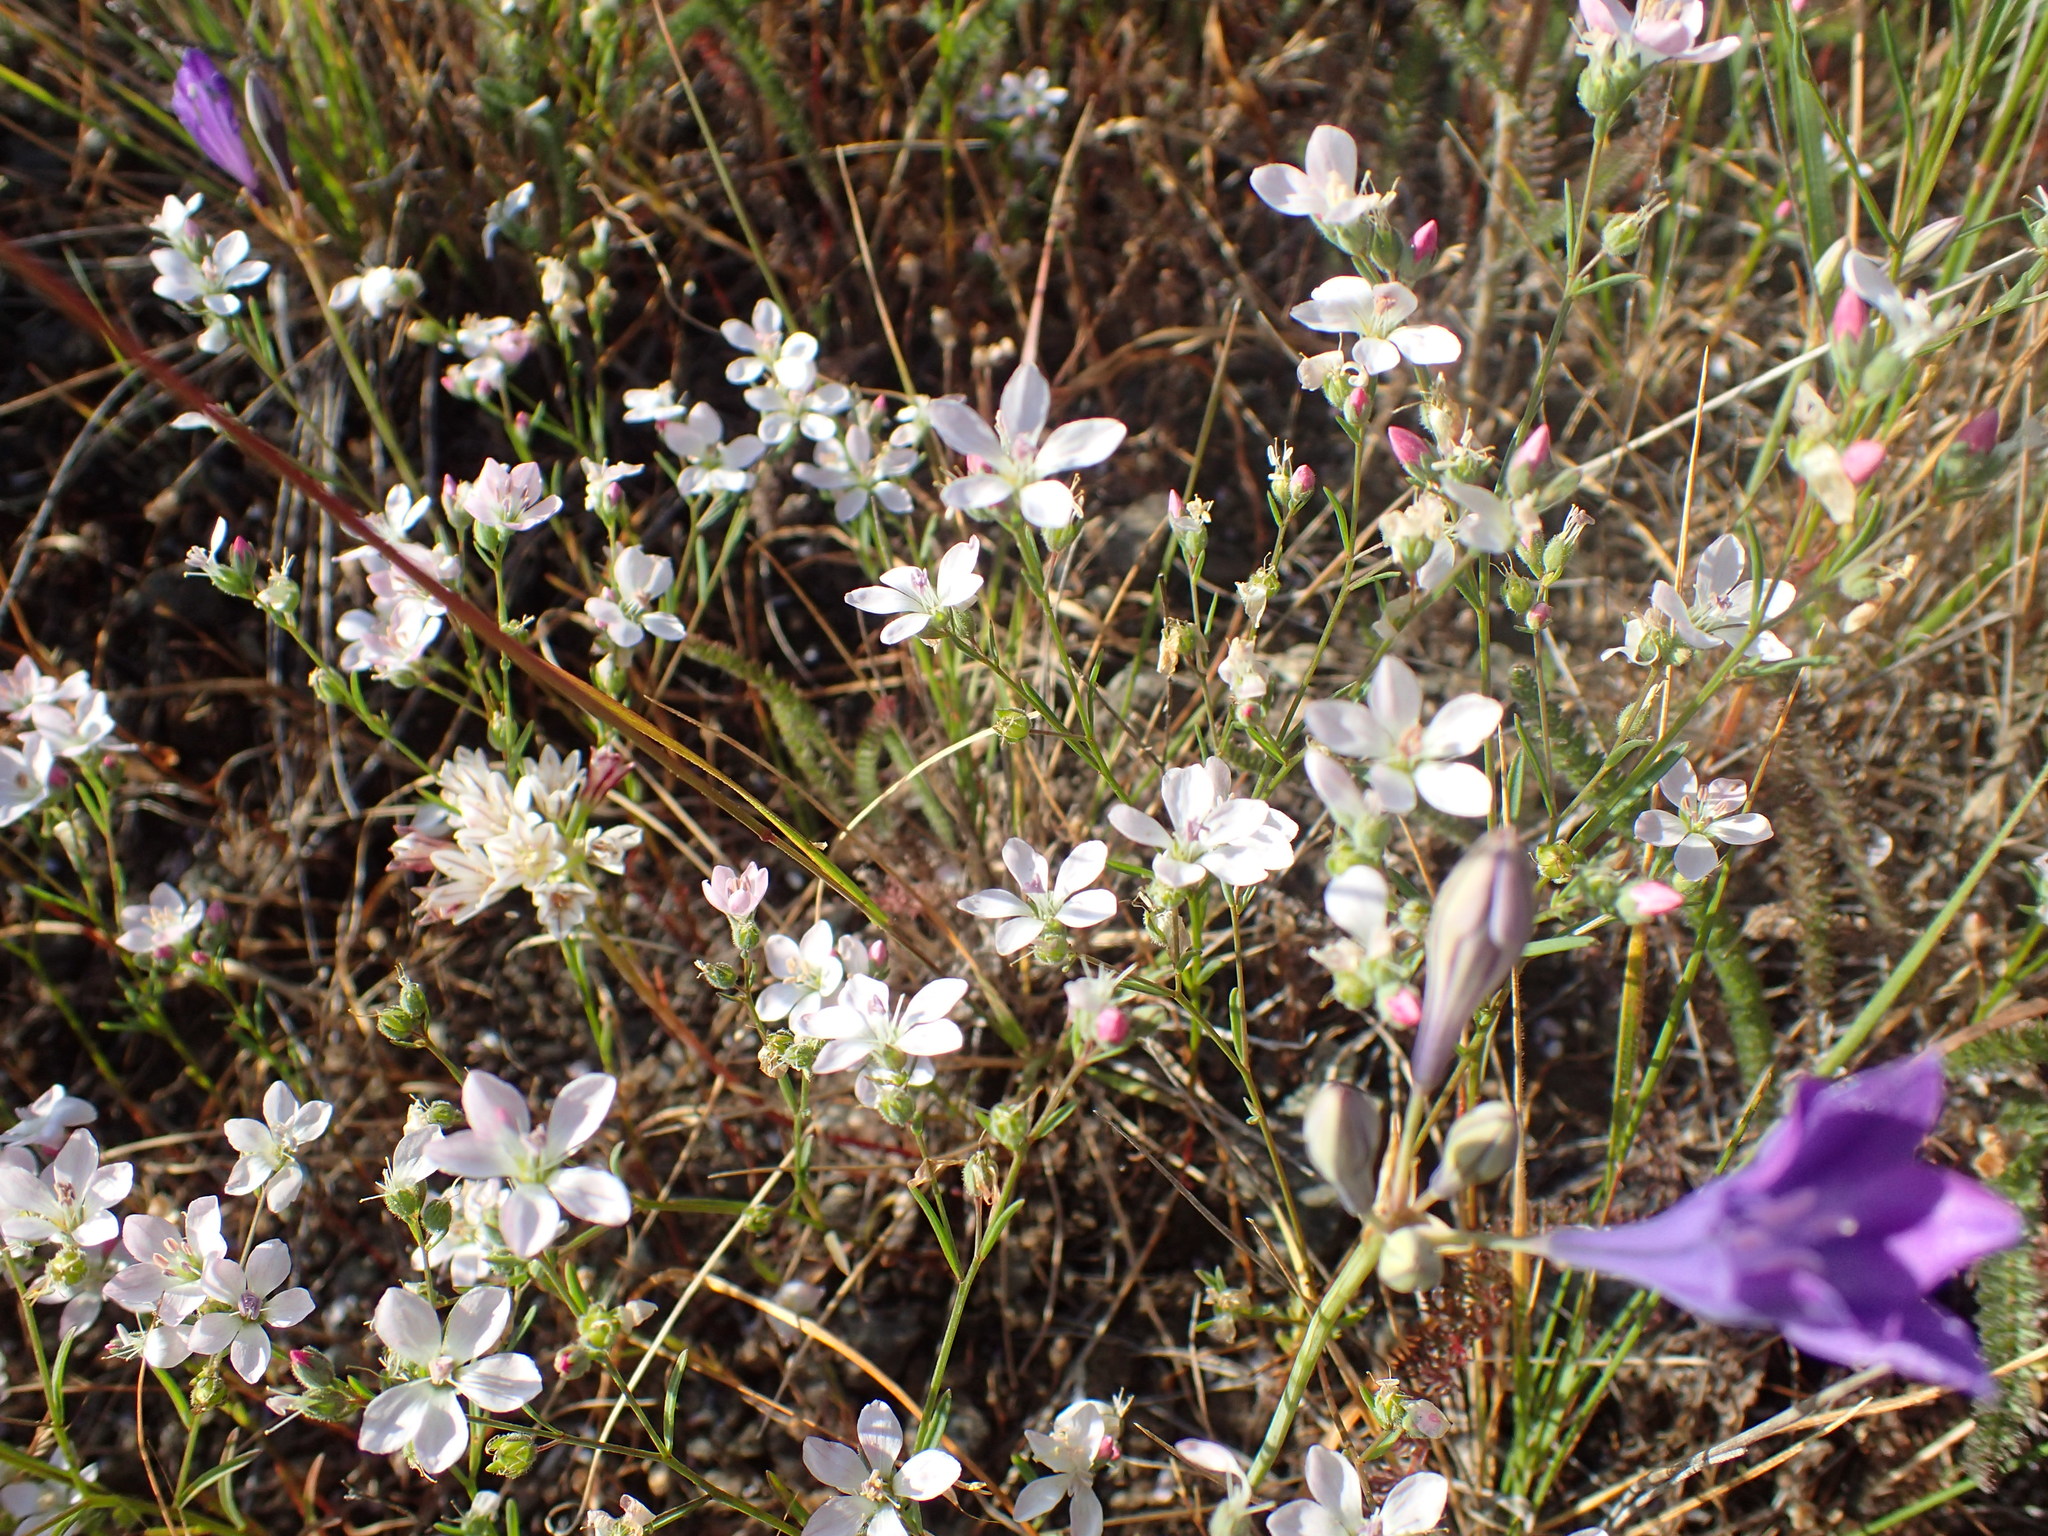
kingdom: Plantae
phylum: Tracheophyta
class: Magnoliopsida
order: Malpighiales
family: Linaceae
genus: Hesperolinon
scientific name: Hesperolinon congestum
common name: Marin dwarf-flax
